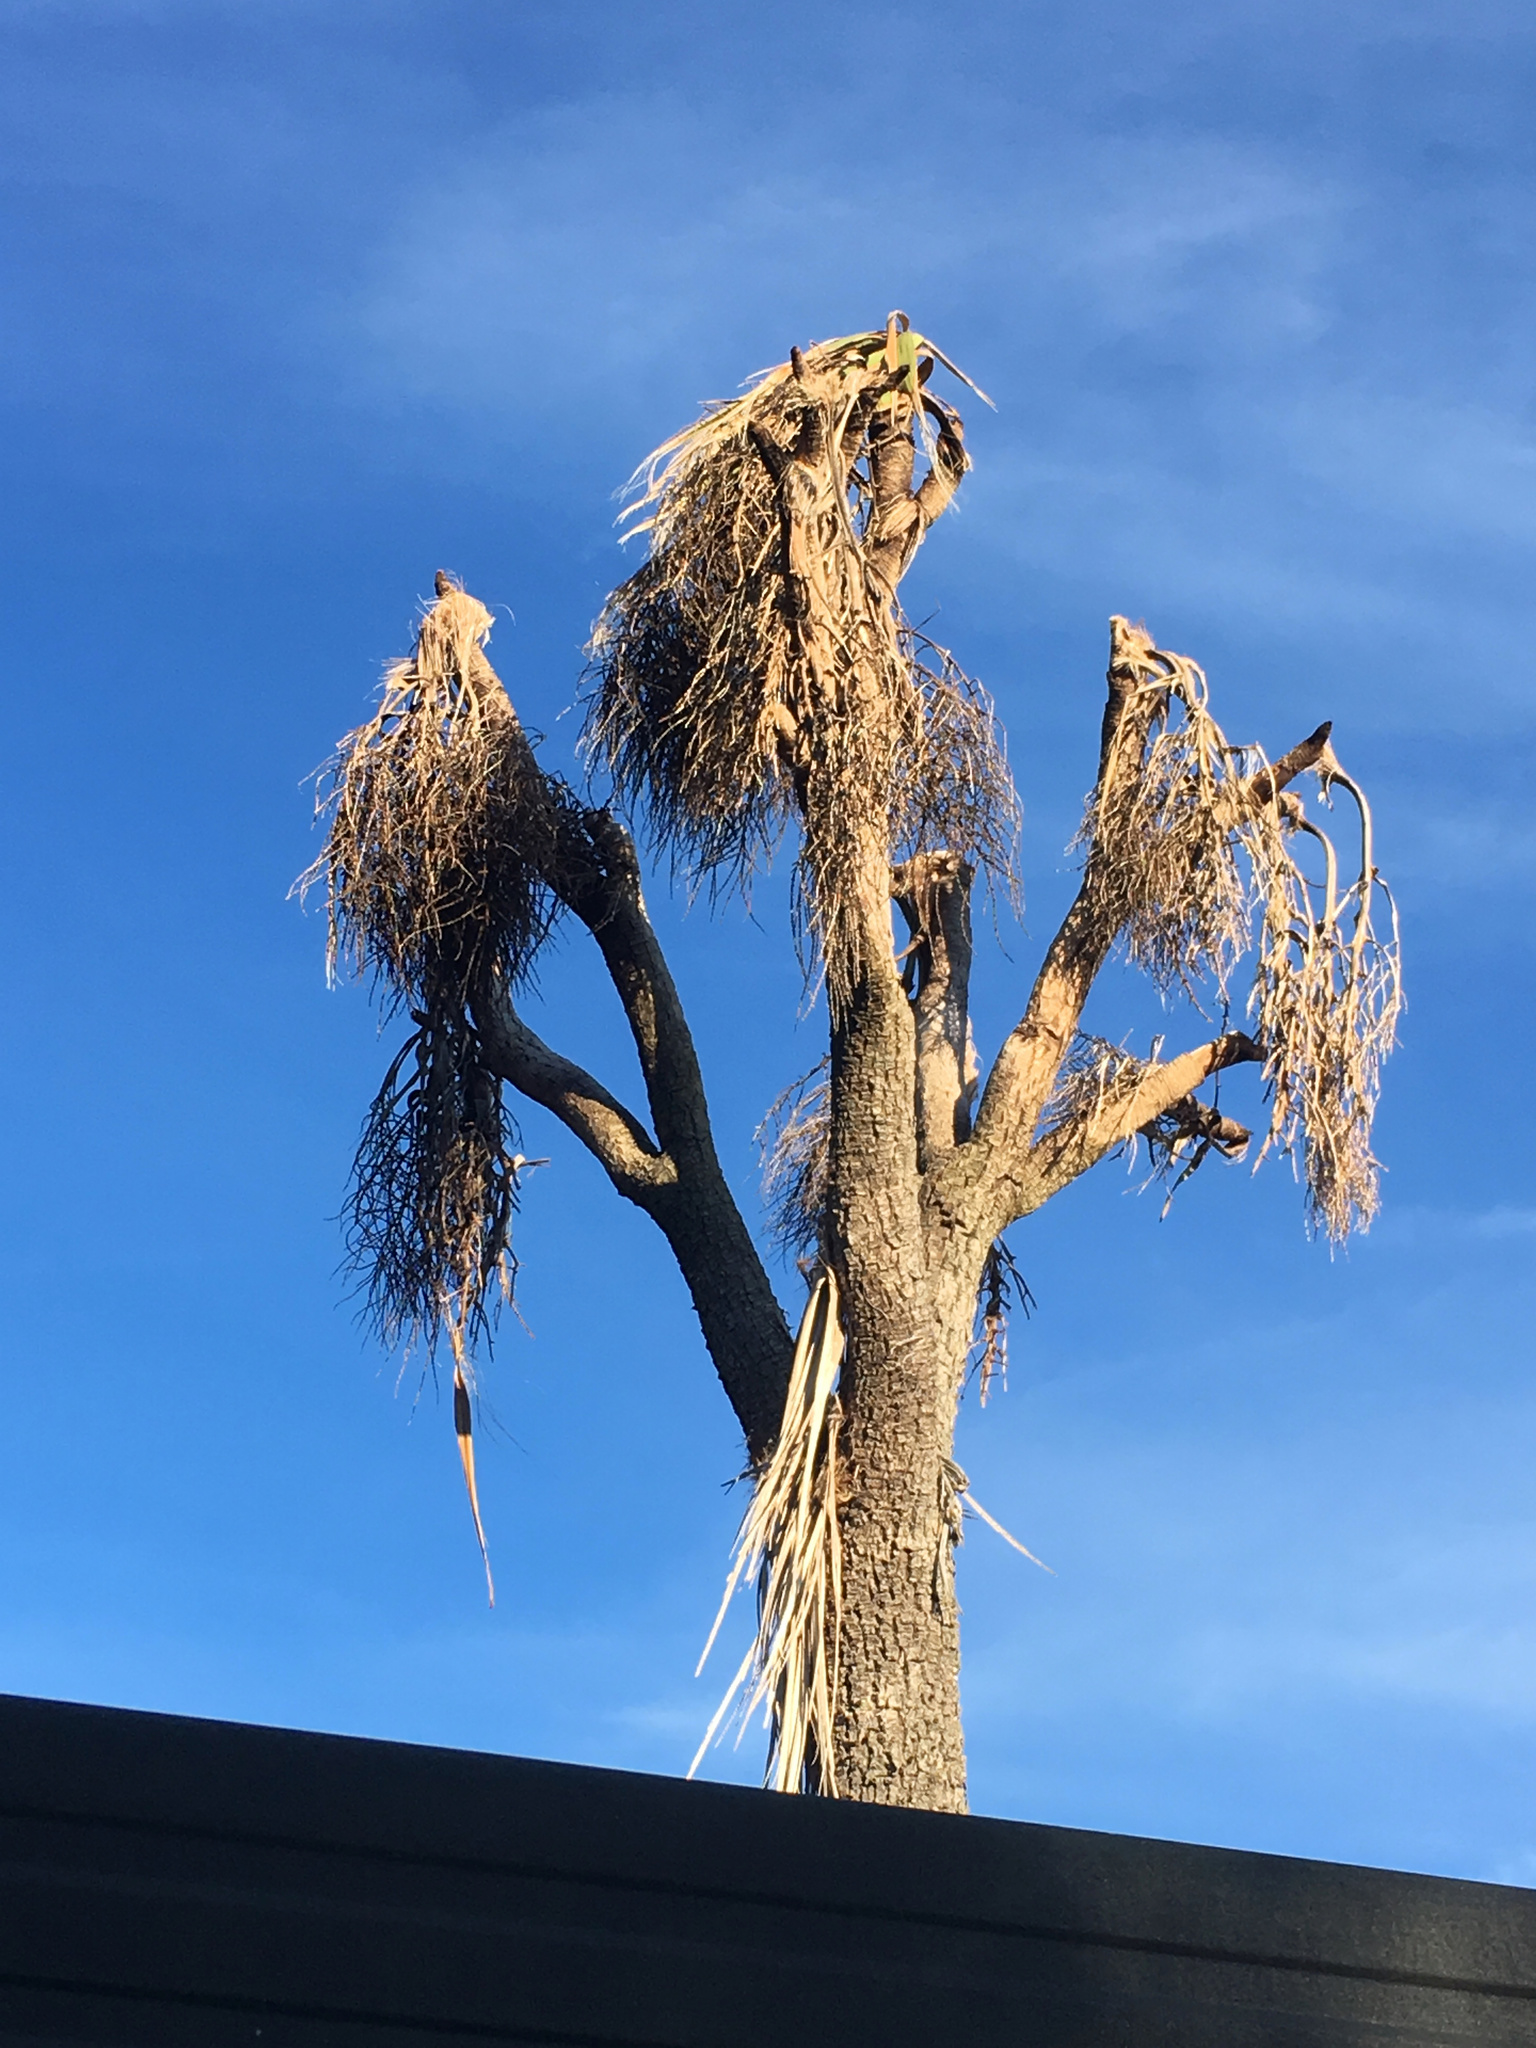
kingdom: Plantae
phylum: Tracheophyta
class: Liliopsida
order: Asparagales
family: Asparagaceae
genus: Cordyline
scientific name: Cordyline australis
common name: Cabbage-palm
